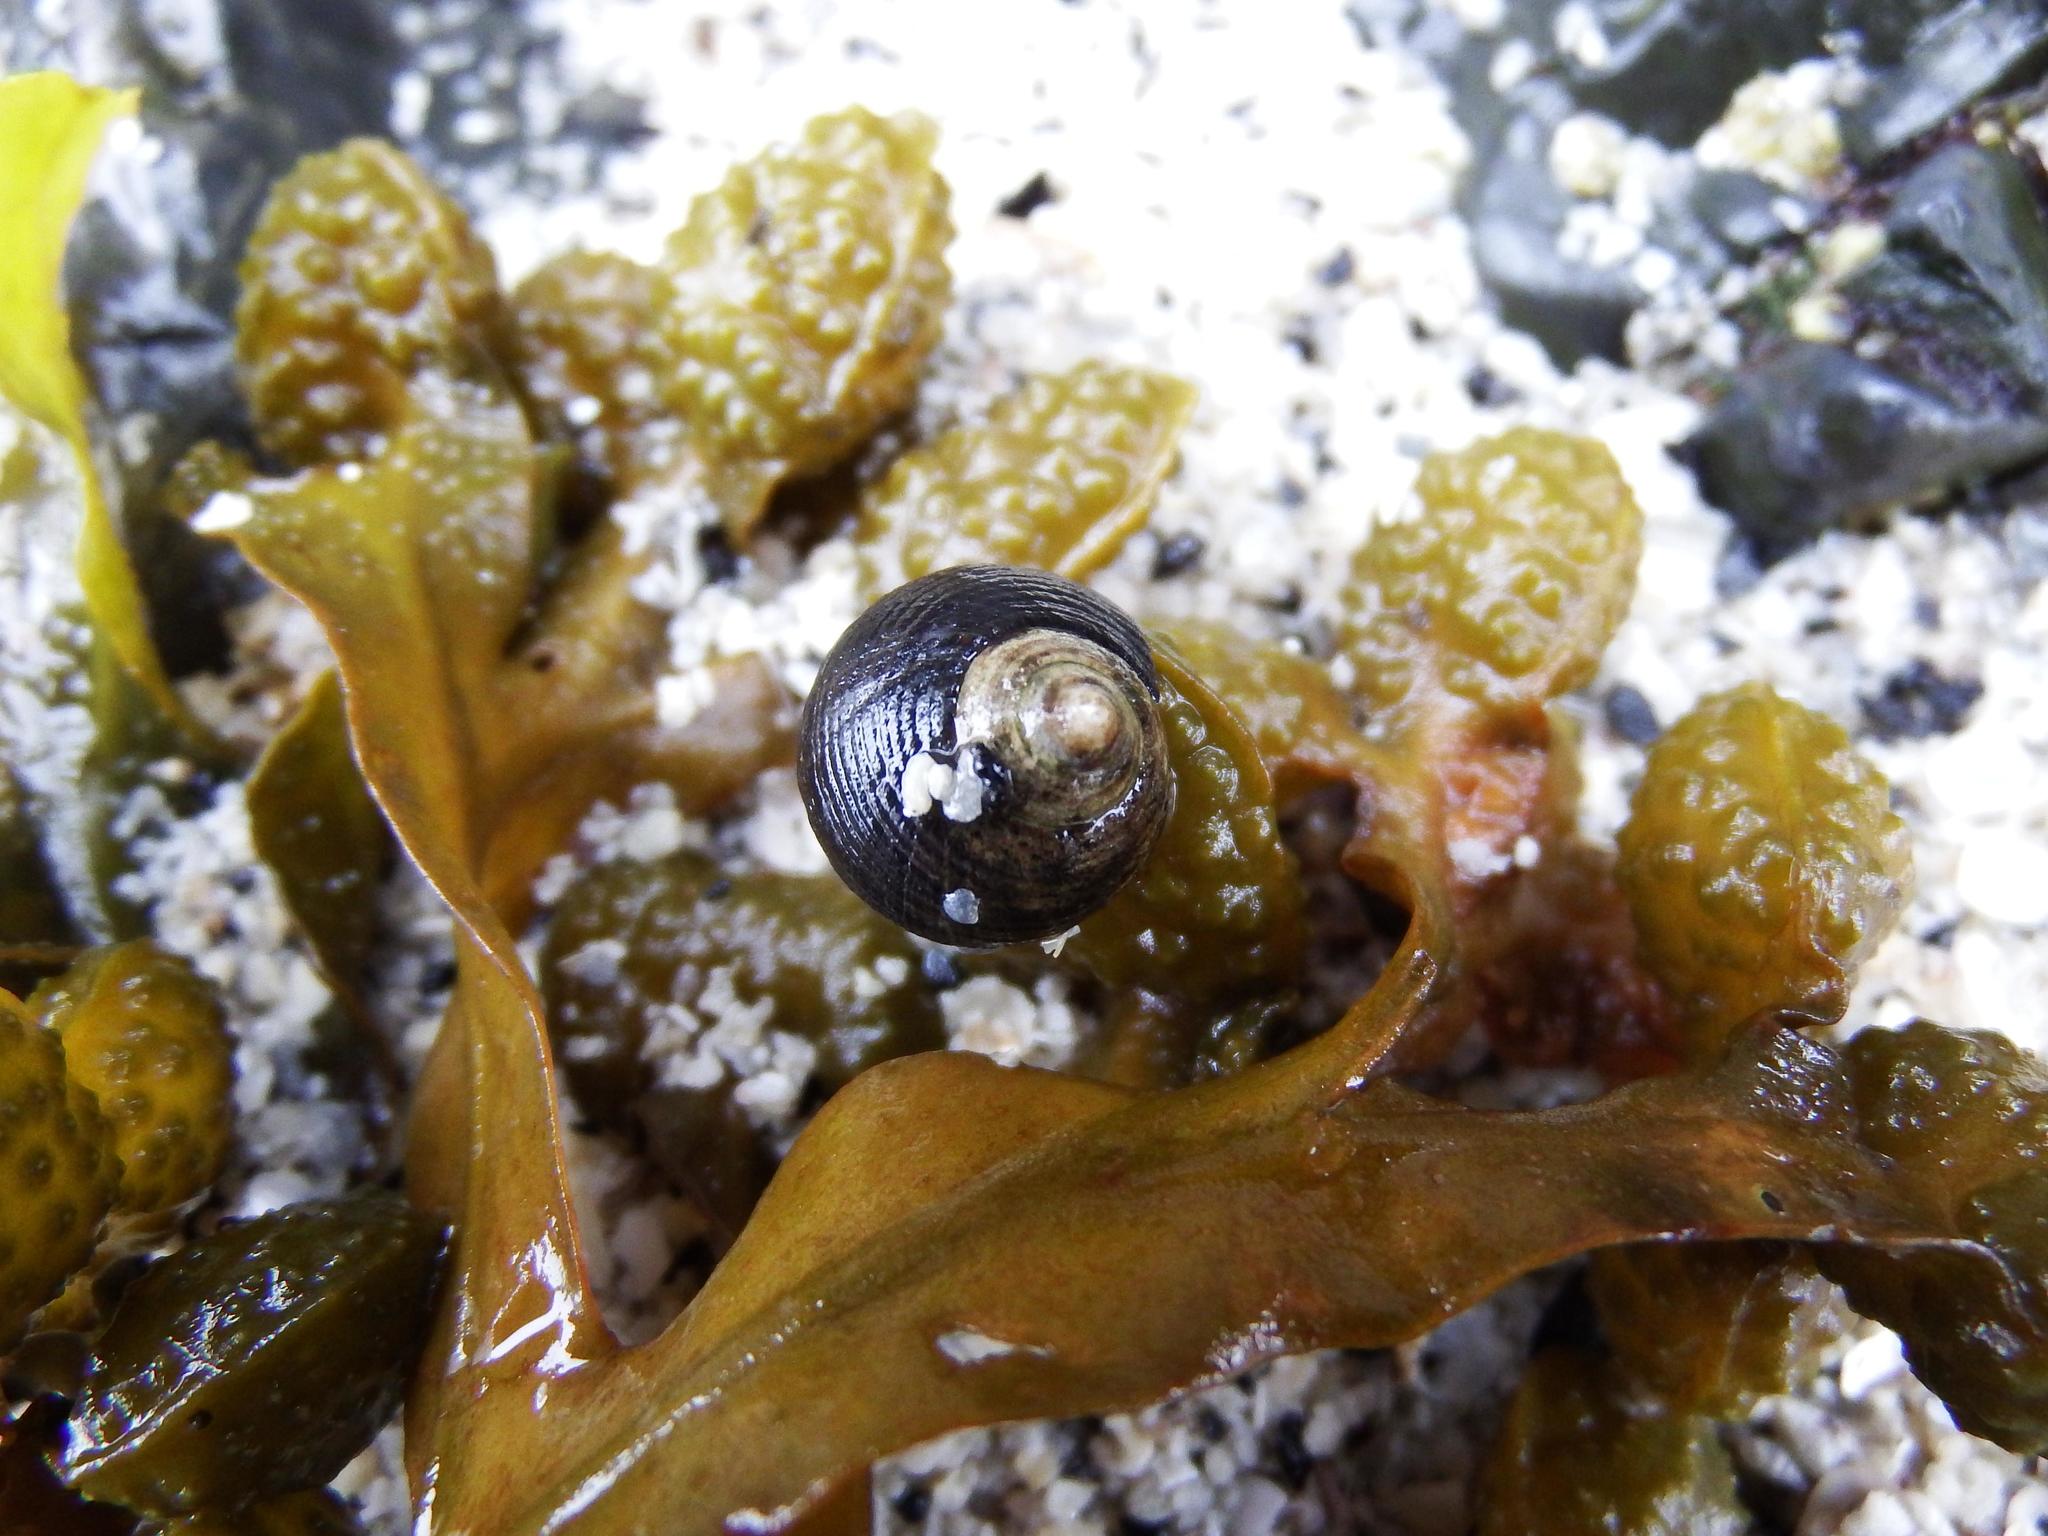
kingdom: Animalia
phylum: Mollusca
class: Gastropoda
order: Littorinimorpha
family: Littorinidae
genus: Littorina
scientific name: Littorina littorea
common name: Common periwinkle
